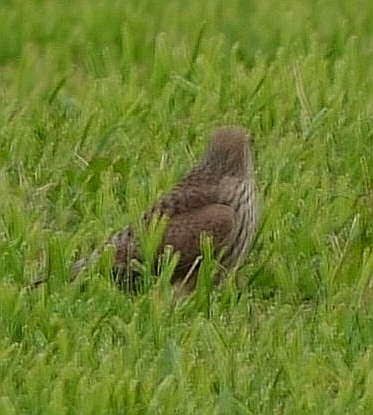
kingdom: Animalia
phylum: Chordata
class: Aves
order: Falconiformes
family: Falconidae
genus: Falco
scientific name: Falco tinnunculus
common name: Common kestrel
